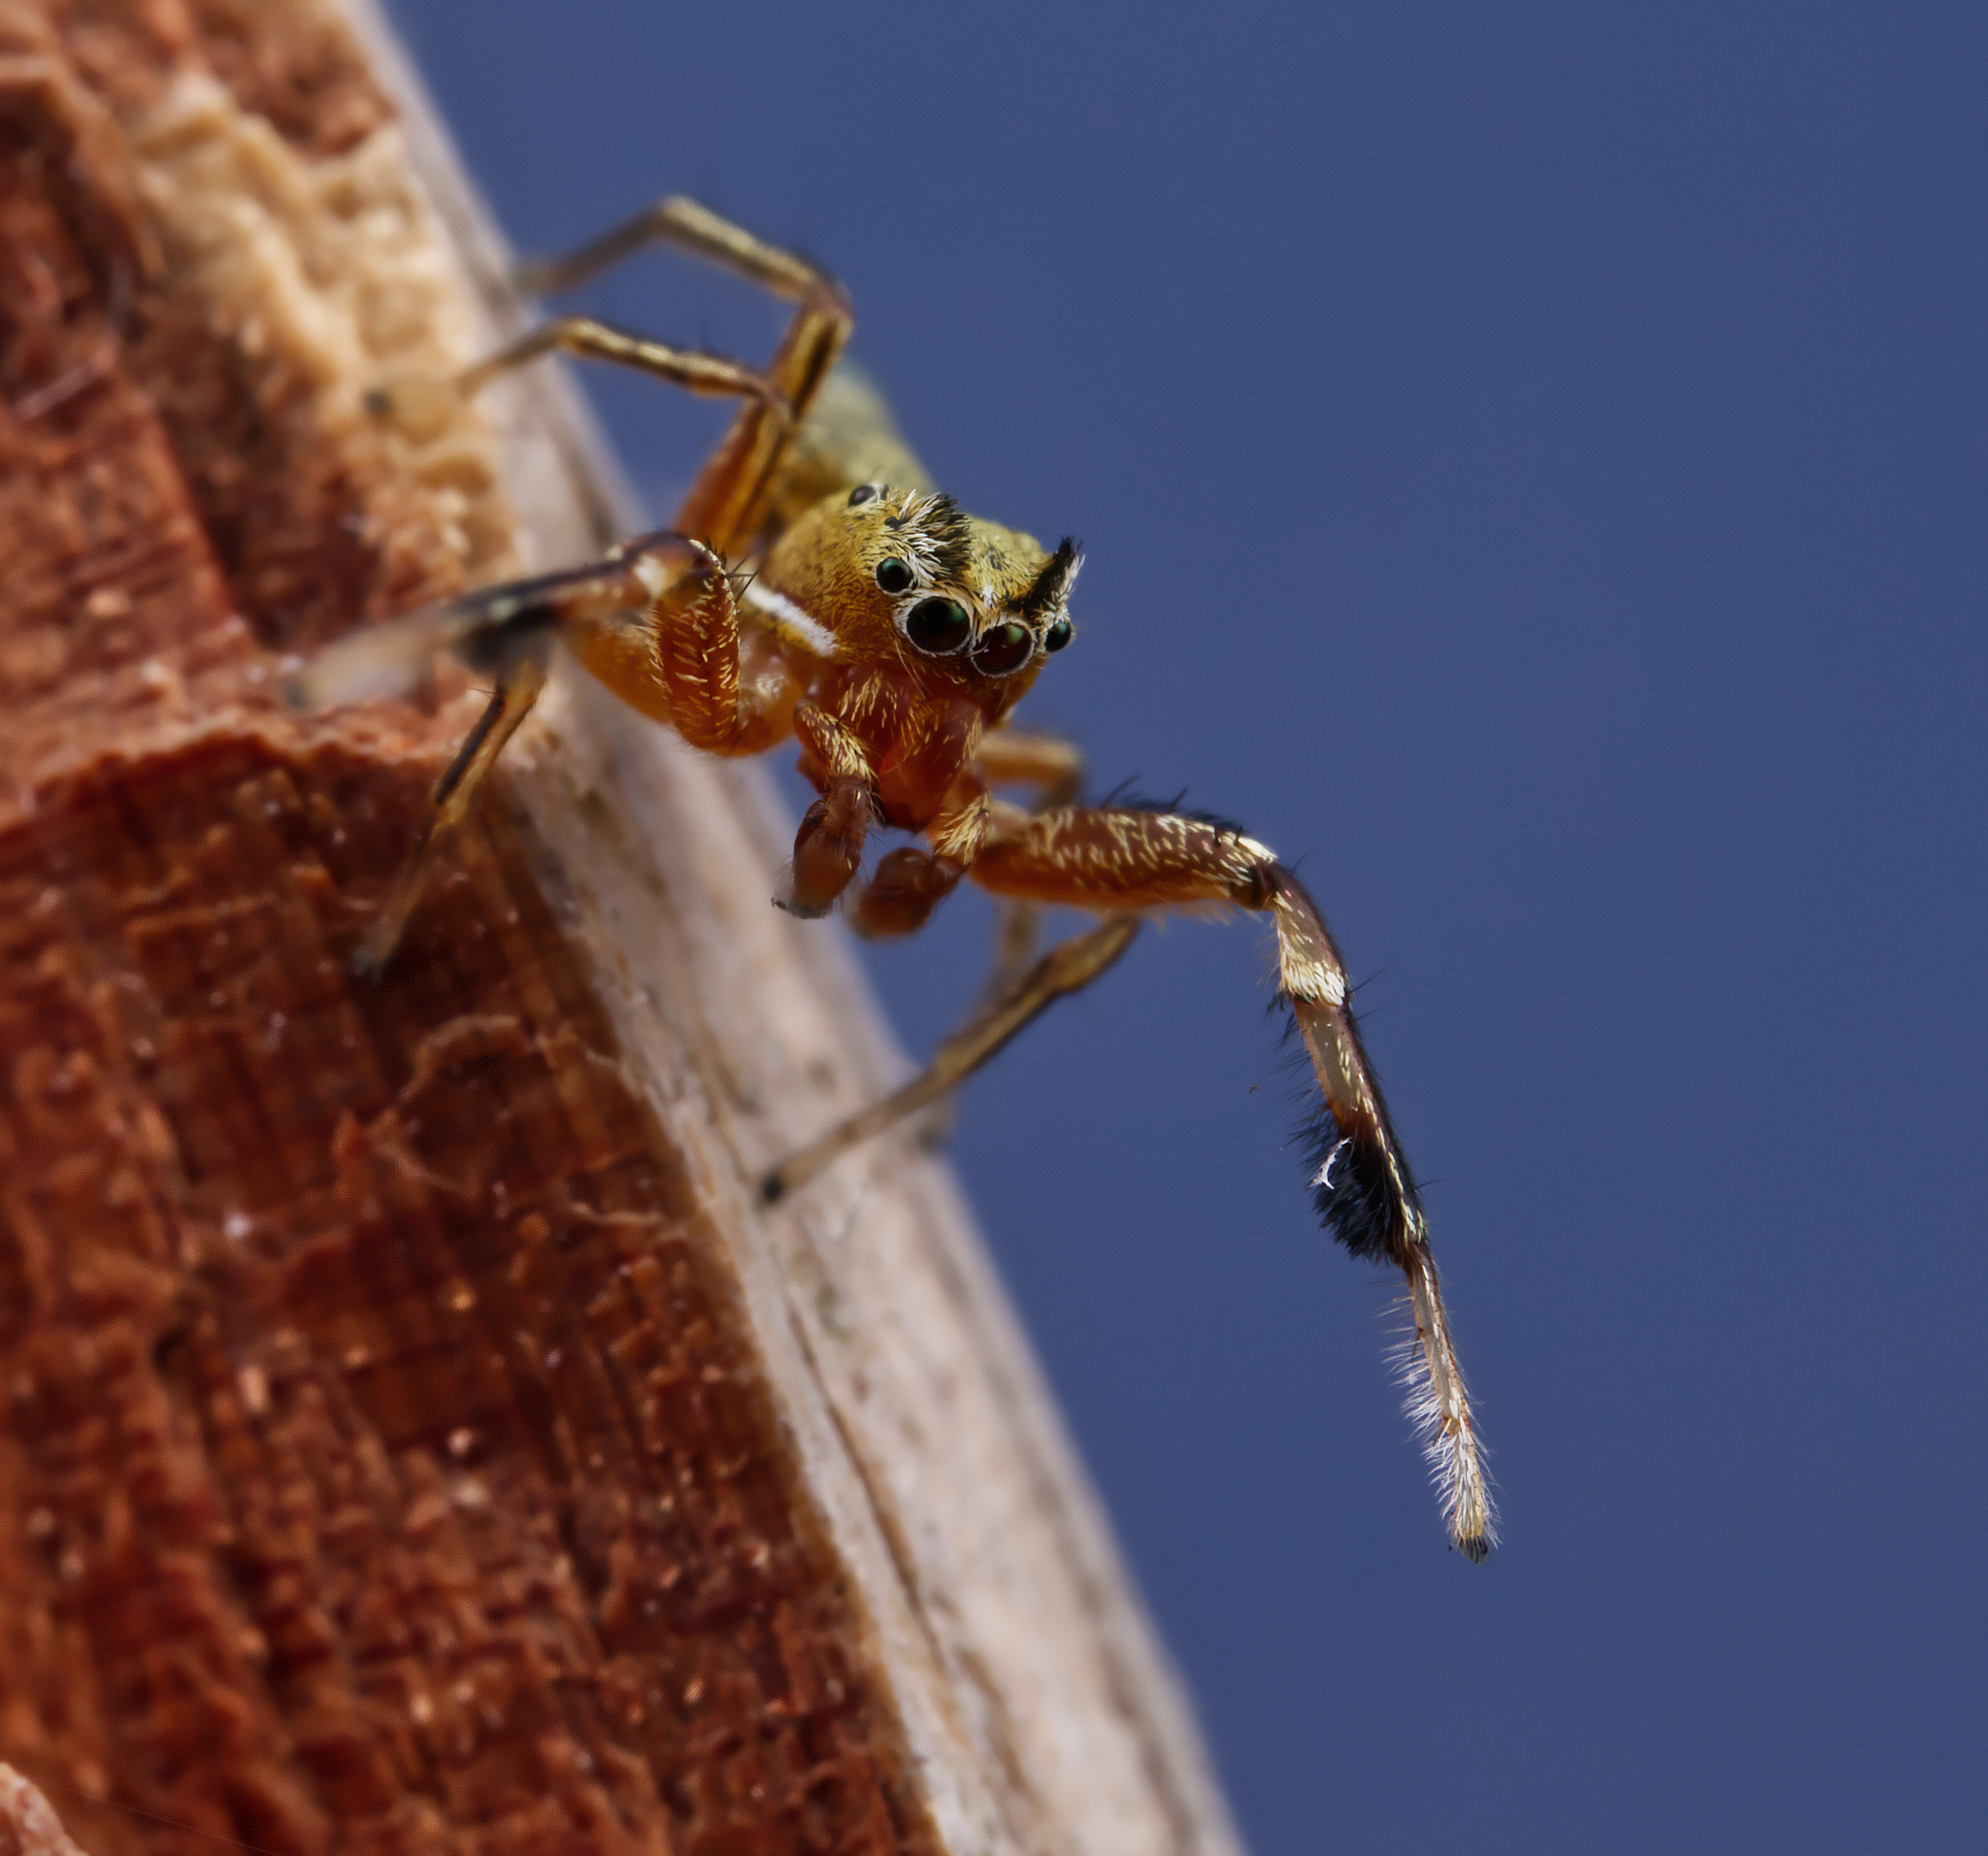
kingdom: Animalia
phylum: Arthropoda
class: Arachnida
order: Araneae
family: Salticidae
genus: Tutelina
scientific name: Tutelina elegans
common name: Thin-spined jumping spider
